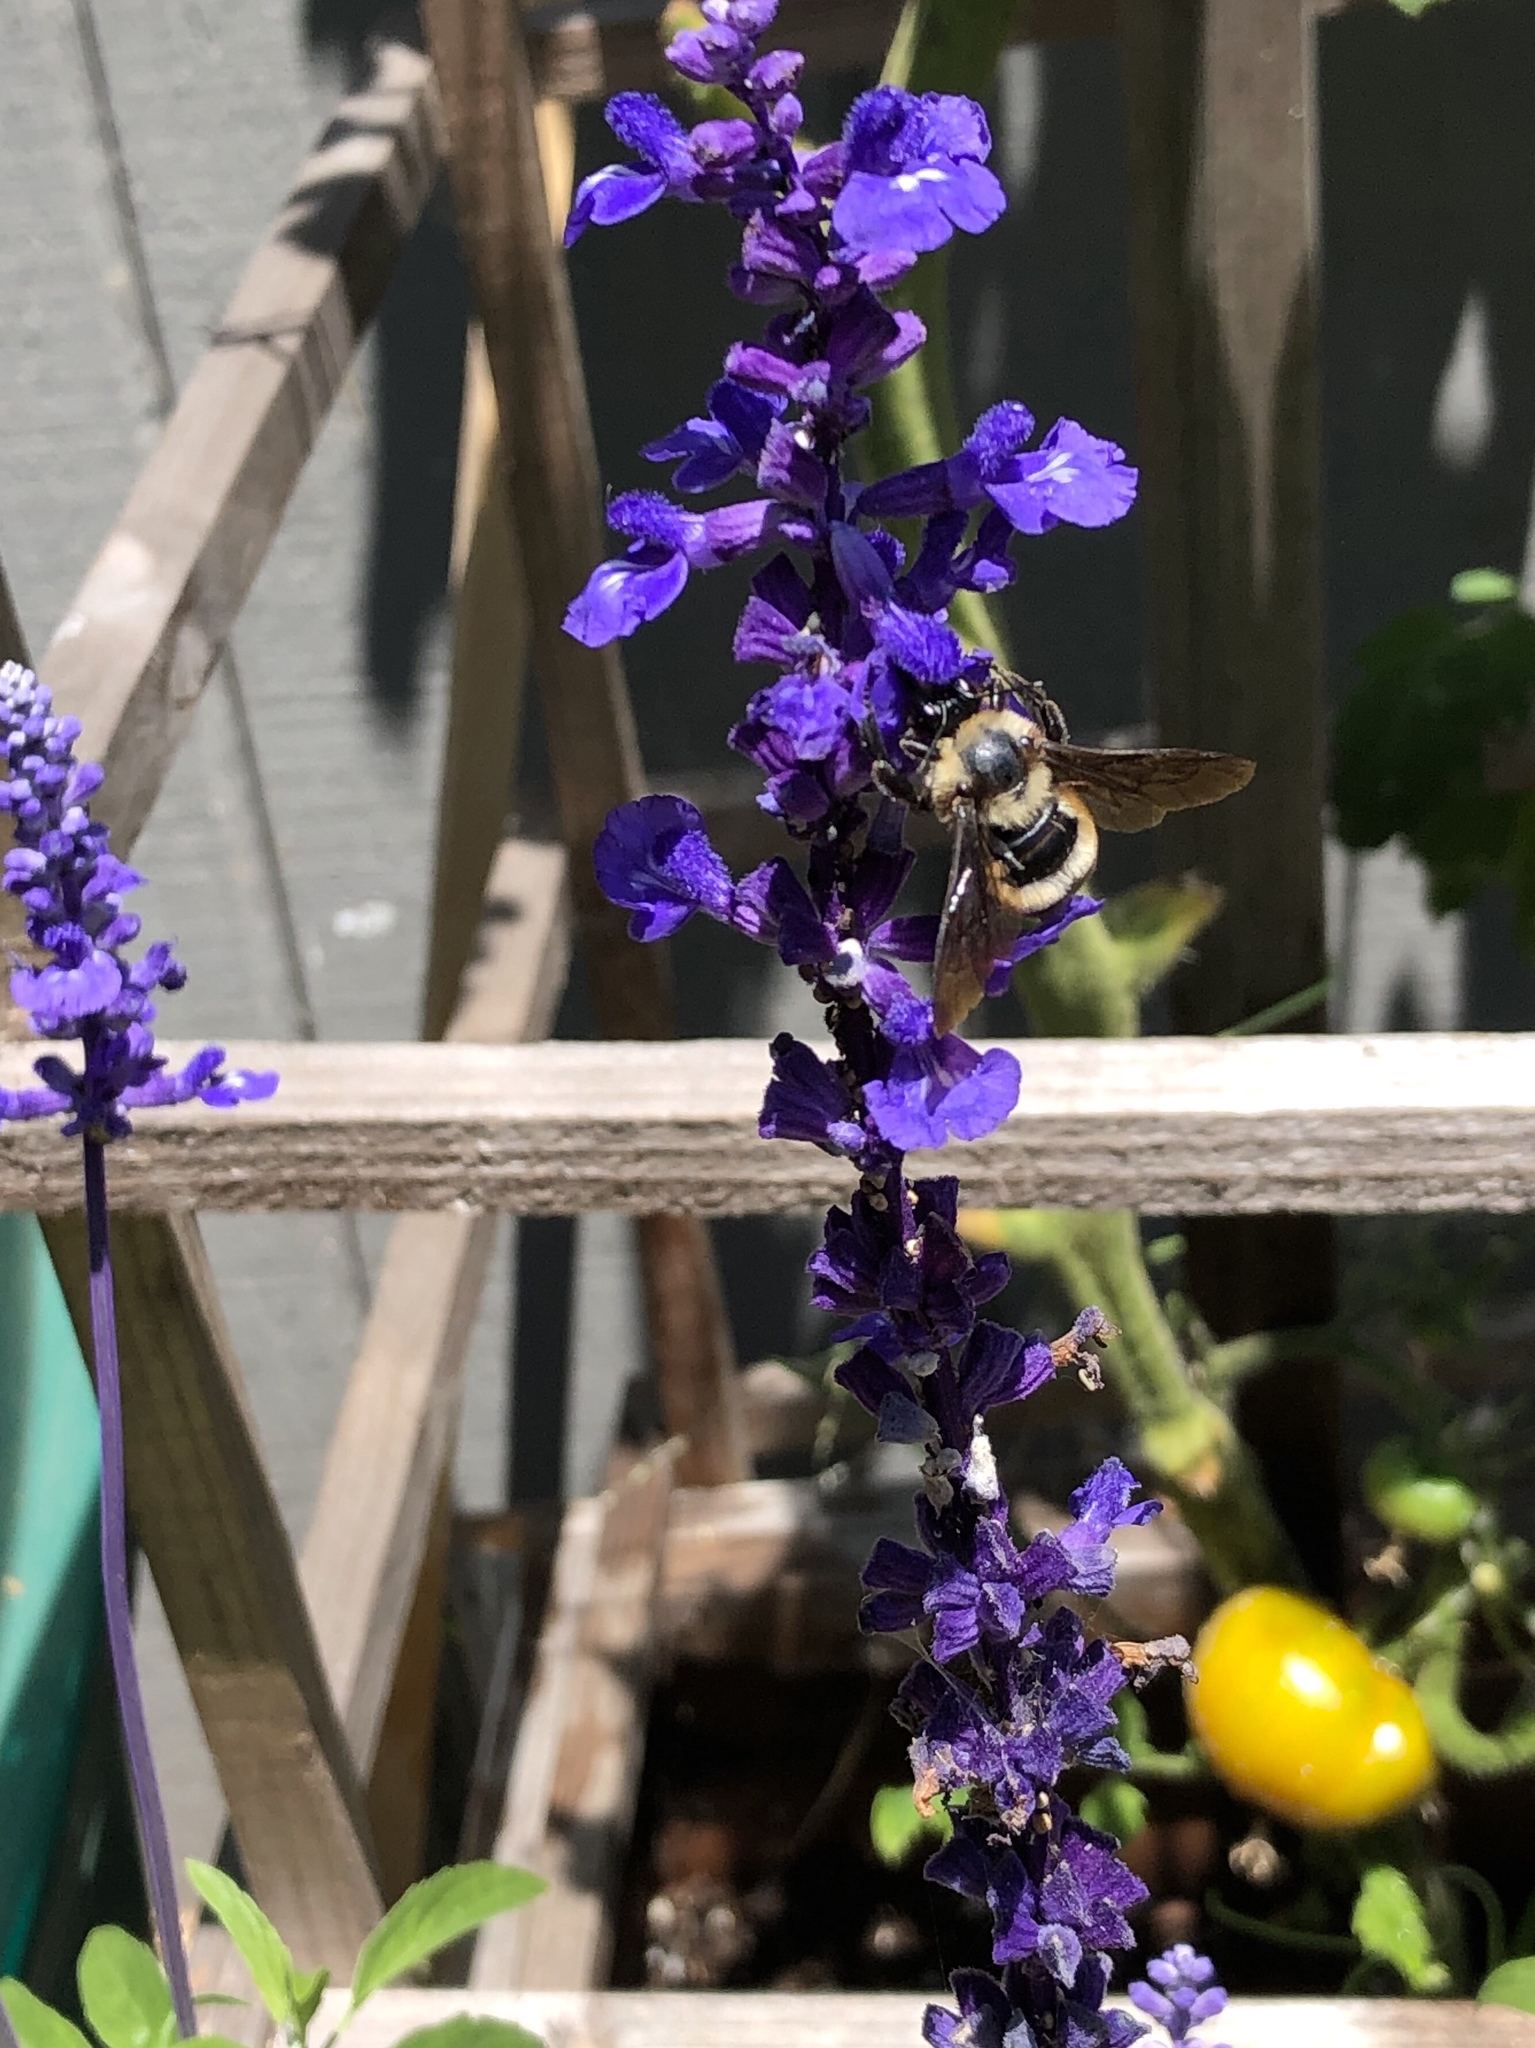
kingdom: Animalia
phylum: Arthropoda
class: Insecta
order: Hymenoptera
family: Apidae
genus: Bombus
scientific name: Bombus sonorus
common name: Sonoran bumble bee
